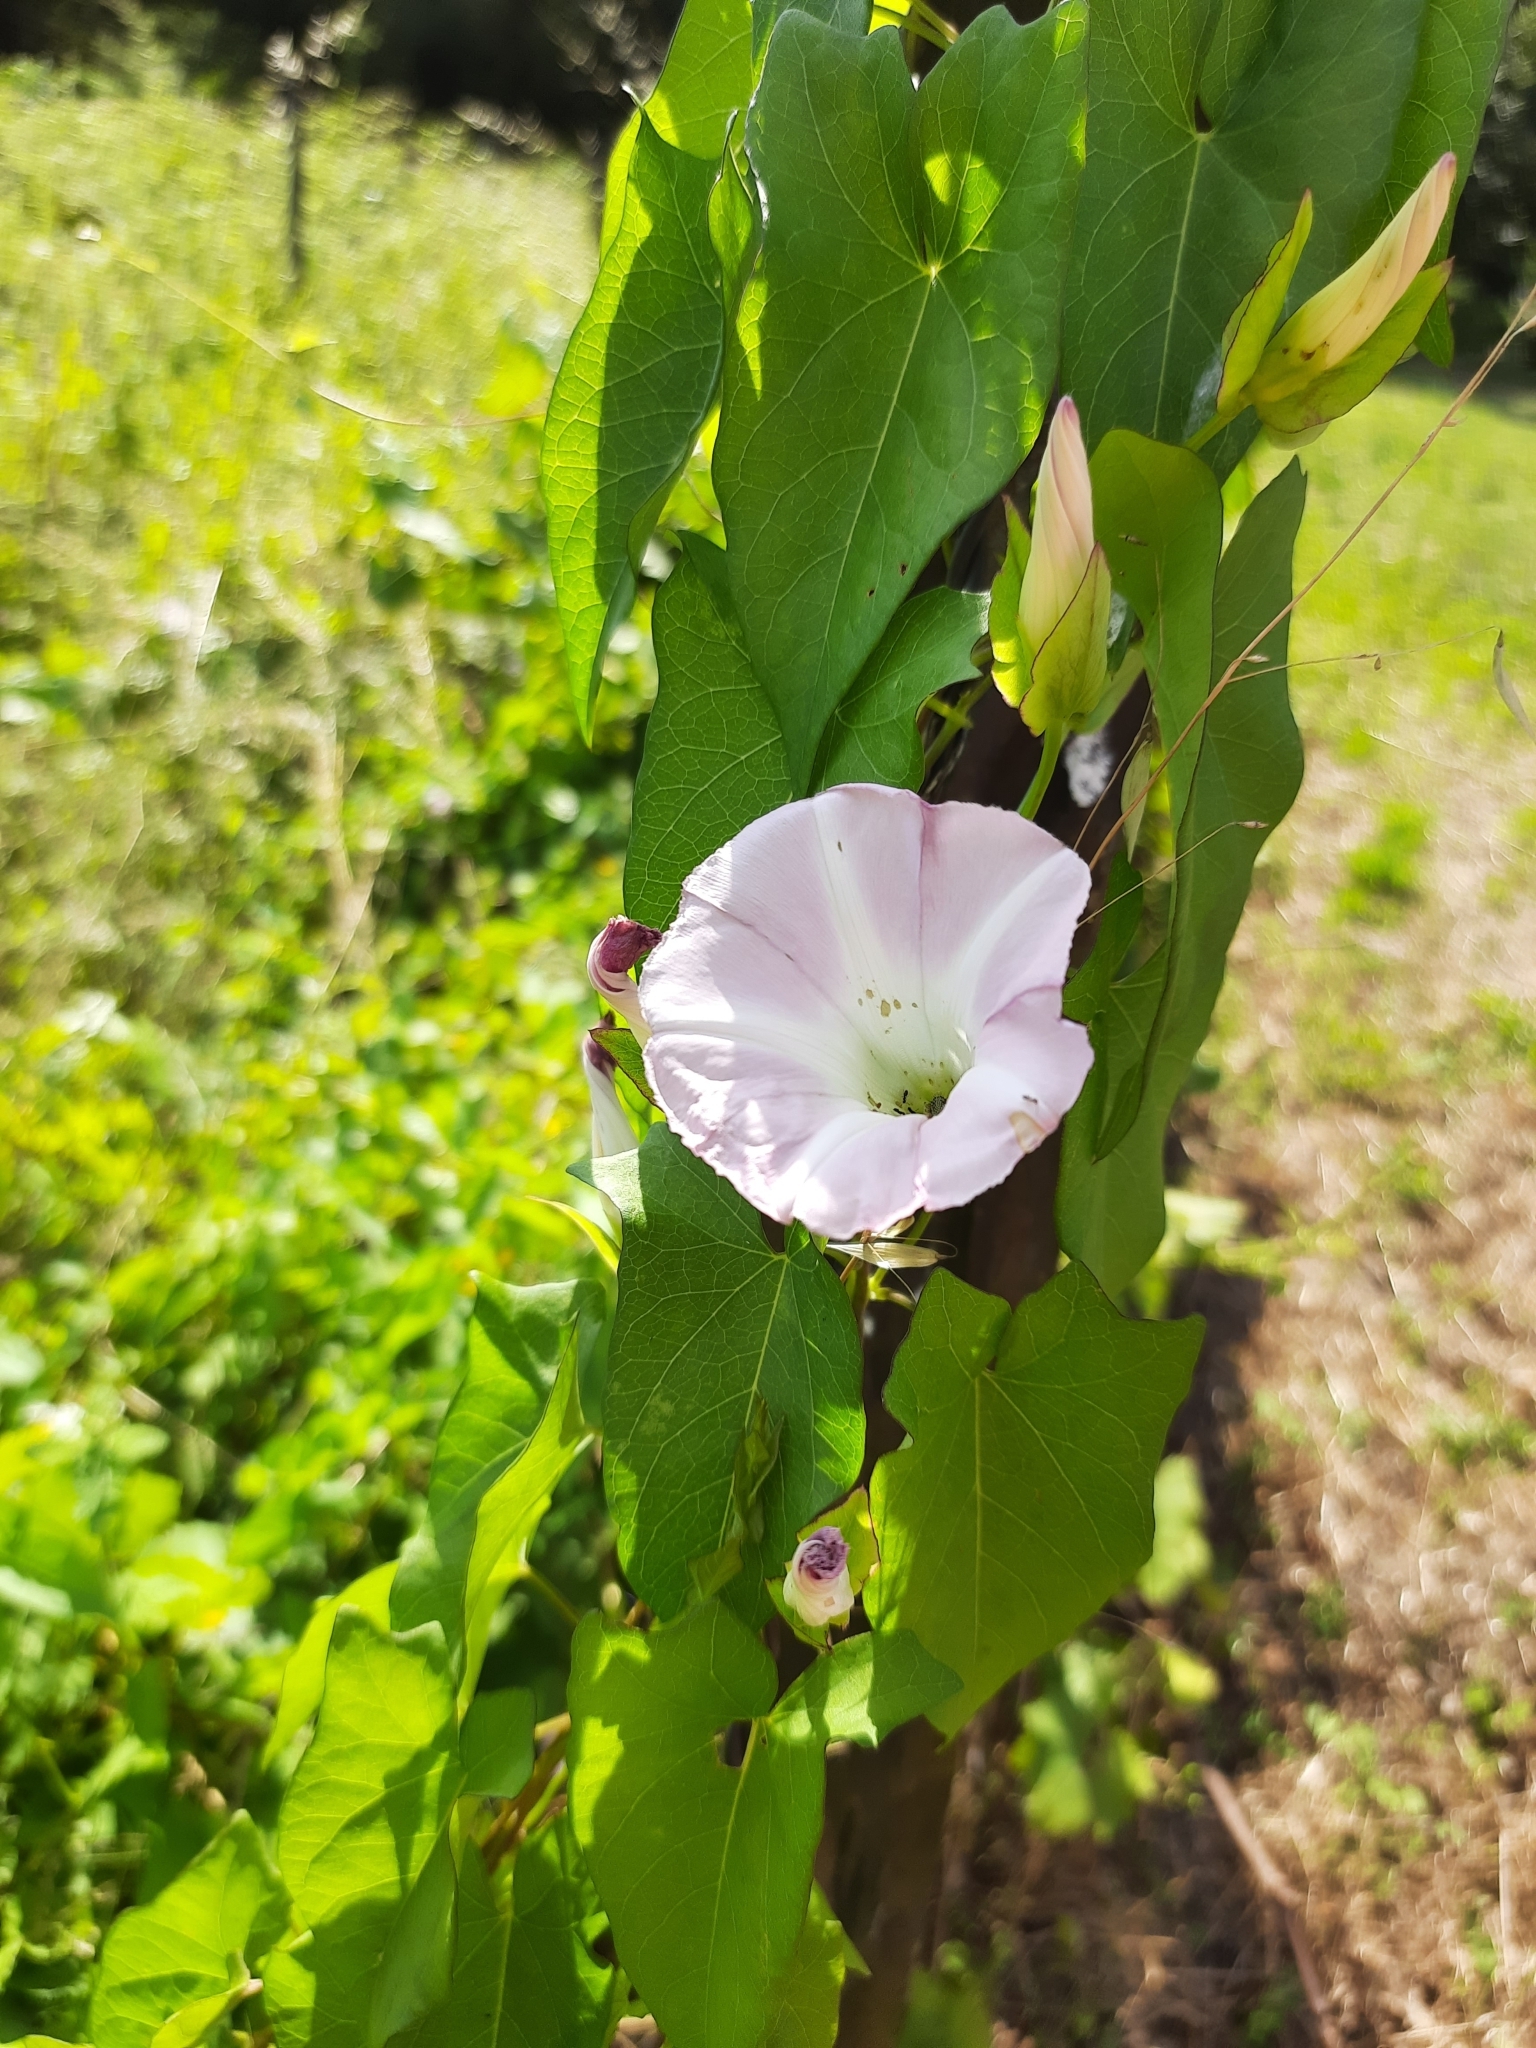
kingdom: Plantae
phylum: Tracheophyta
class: Magnoliopsida
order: Solanales
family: Convolvulaceae
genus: Calystegia
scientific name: Calystegia sepium
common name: Hedge bindweed
